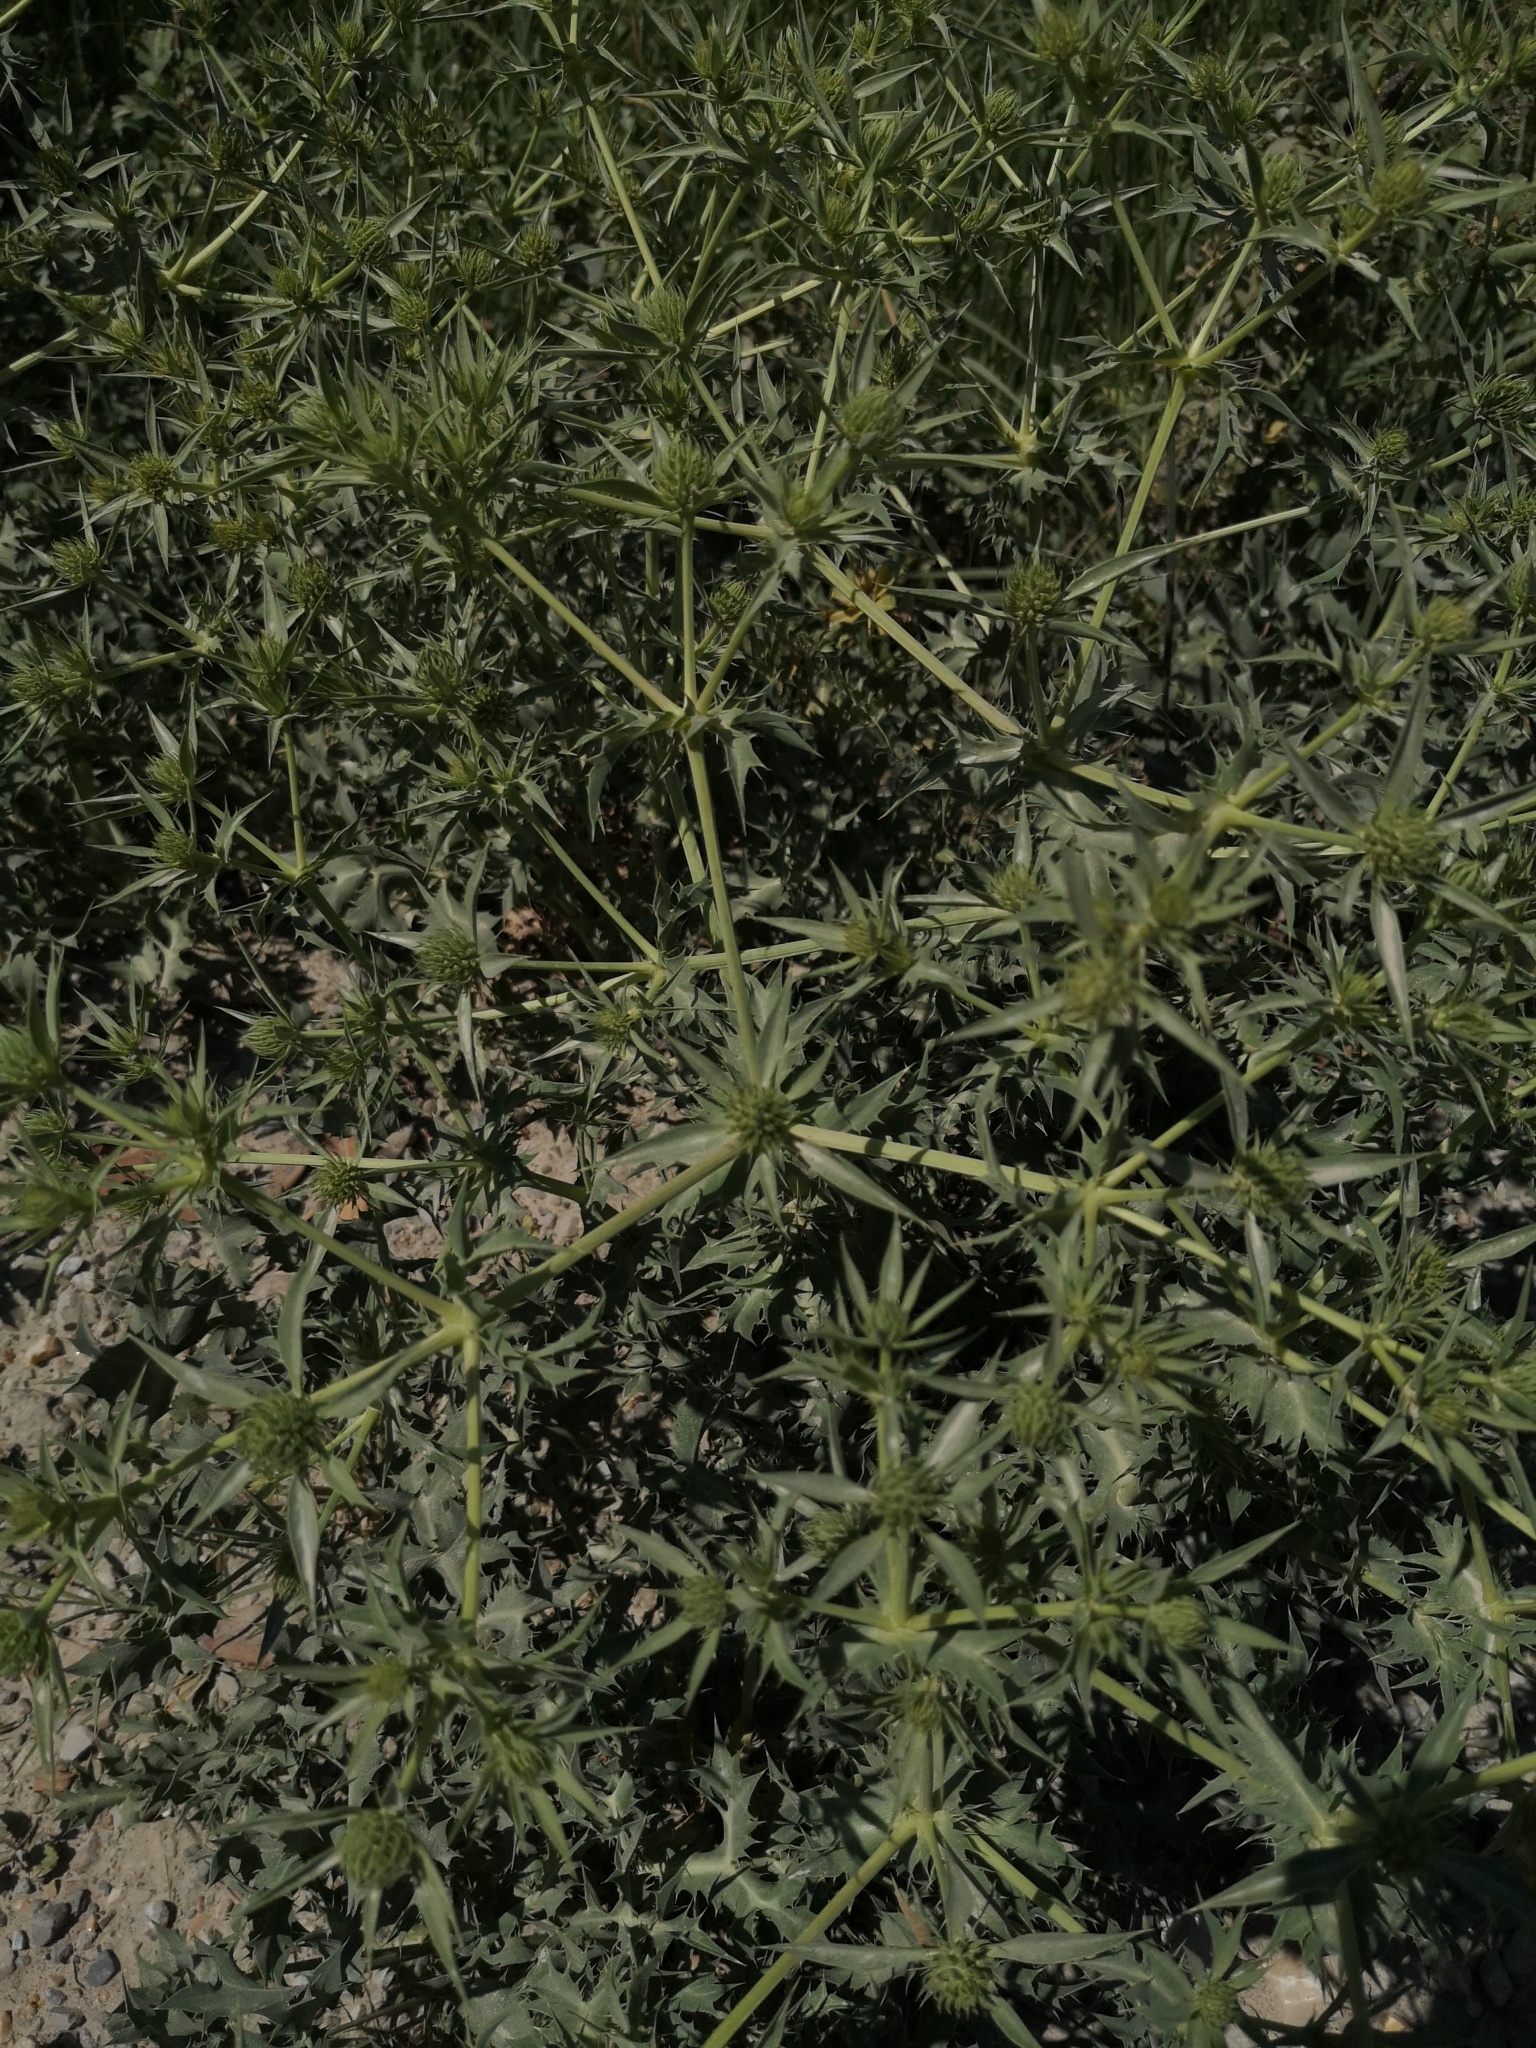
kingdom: Plantae
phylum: Tracheophyta
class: Magnoliopsida
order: Apiales
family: Apiaceae
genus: Eryngium
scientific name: Eryngium campestre
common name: Field eryngo
